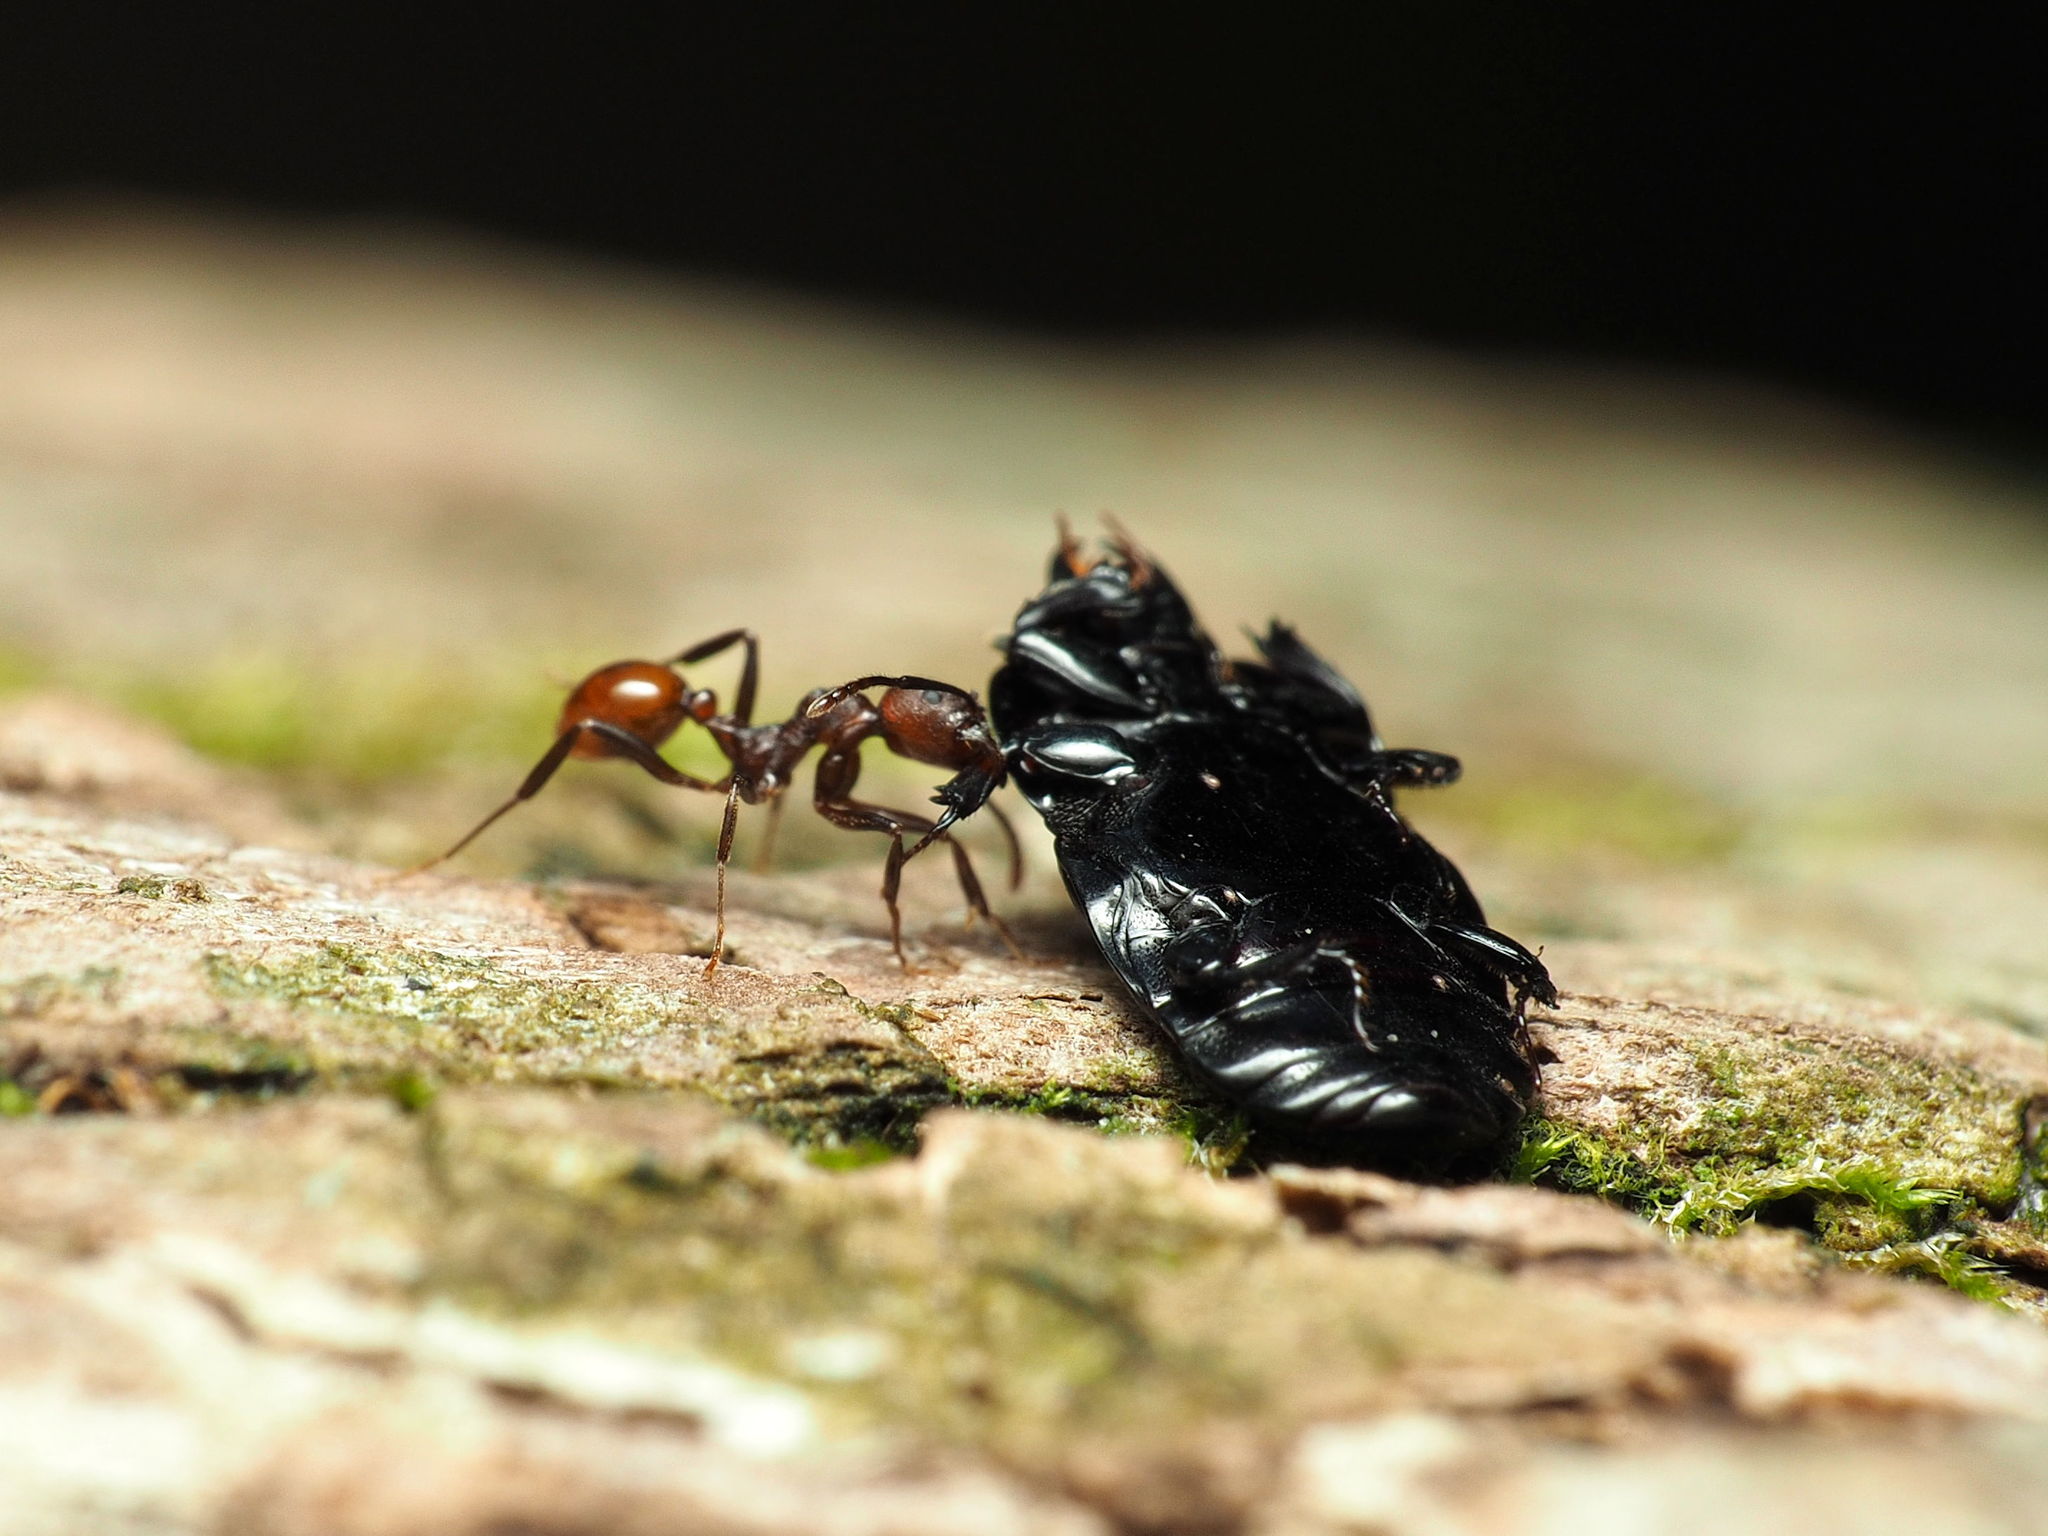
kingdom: Animalia
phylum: Arthropoda
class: Insecta
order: Hymenoptera
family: Formicidae
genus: Aphaenogaster
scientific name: Aphaenogaster tennesseensis
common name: Tennessee thread-waisted ant
